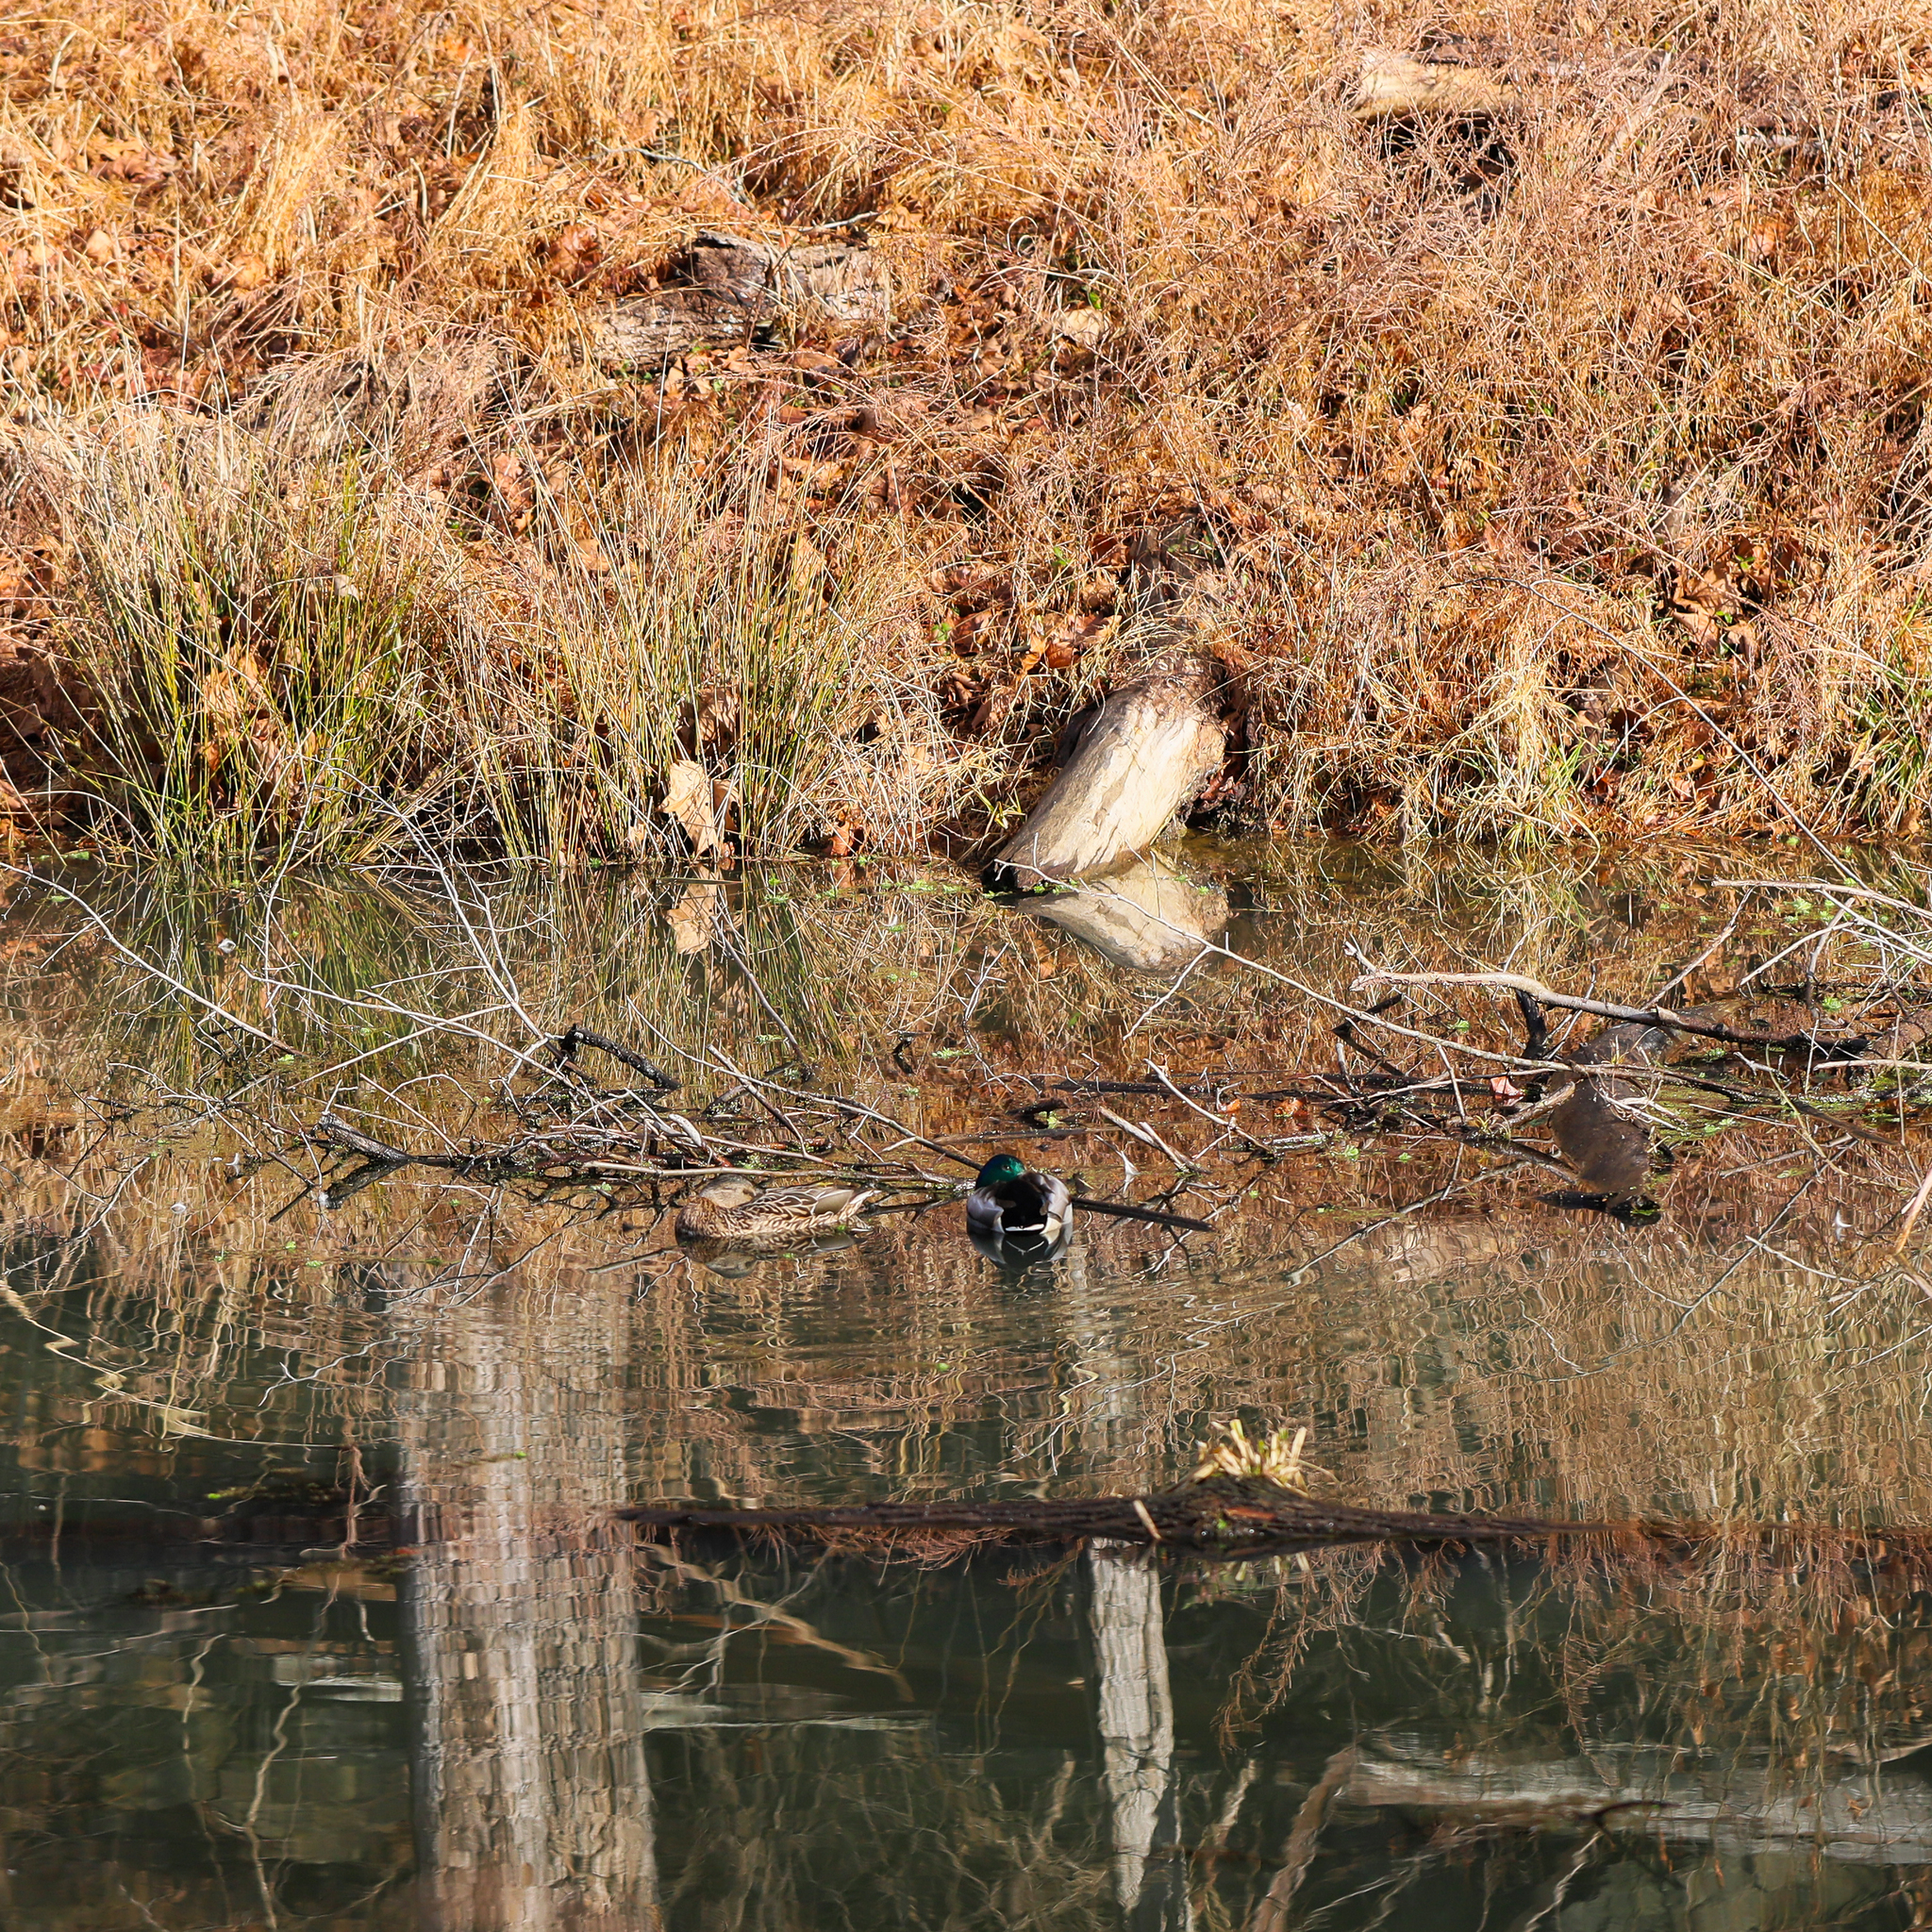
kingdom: Animalia
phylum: Chordata
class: Aves
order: Anseriformes
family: Anatidae
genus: Anas
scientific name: Anas platyrhynchos
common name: Mallard
